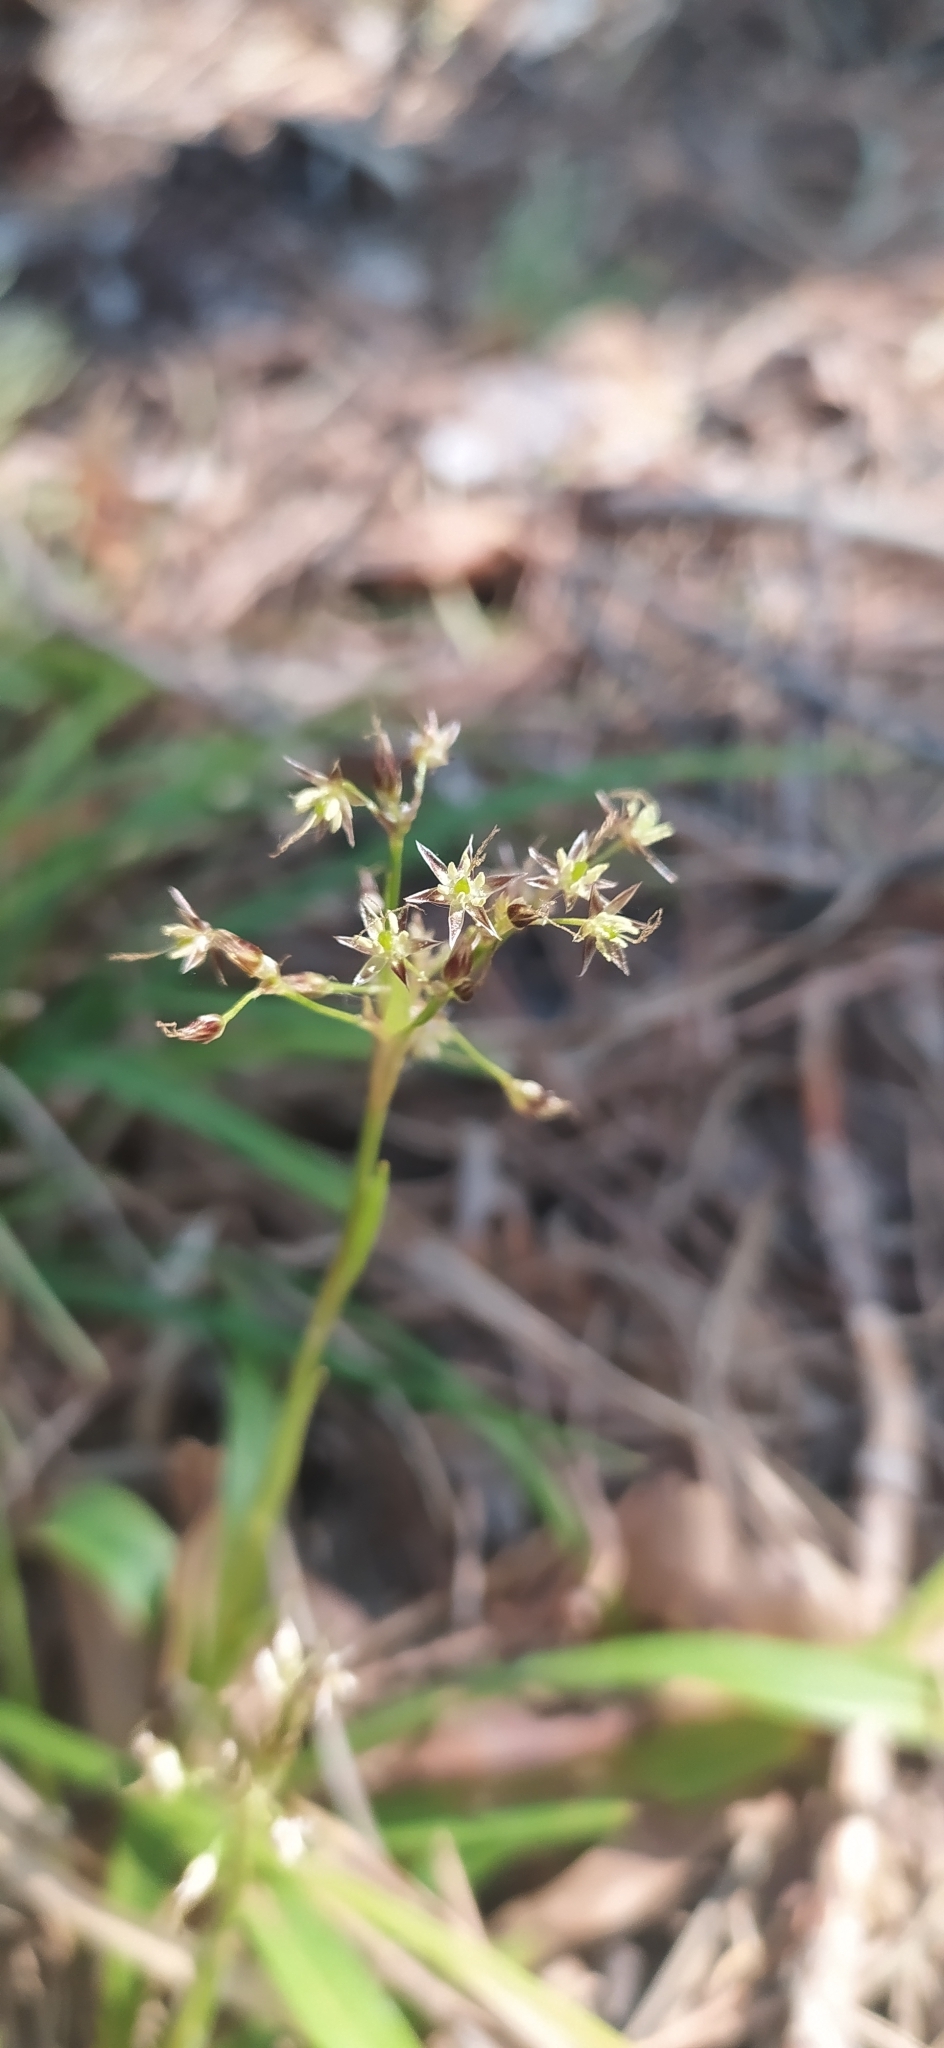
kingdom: Plantae
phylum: Tracheophyta
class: Liliopsida
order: Poales
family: Juncaceae
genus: Luzula
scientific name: Luzula pilosa
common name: Hairy wood-rush
